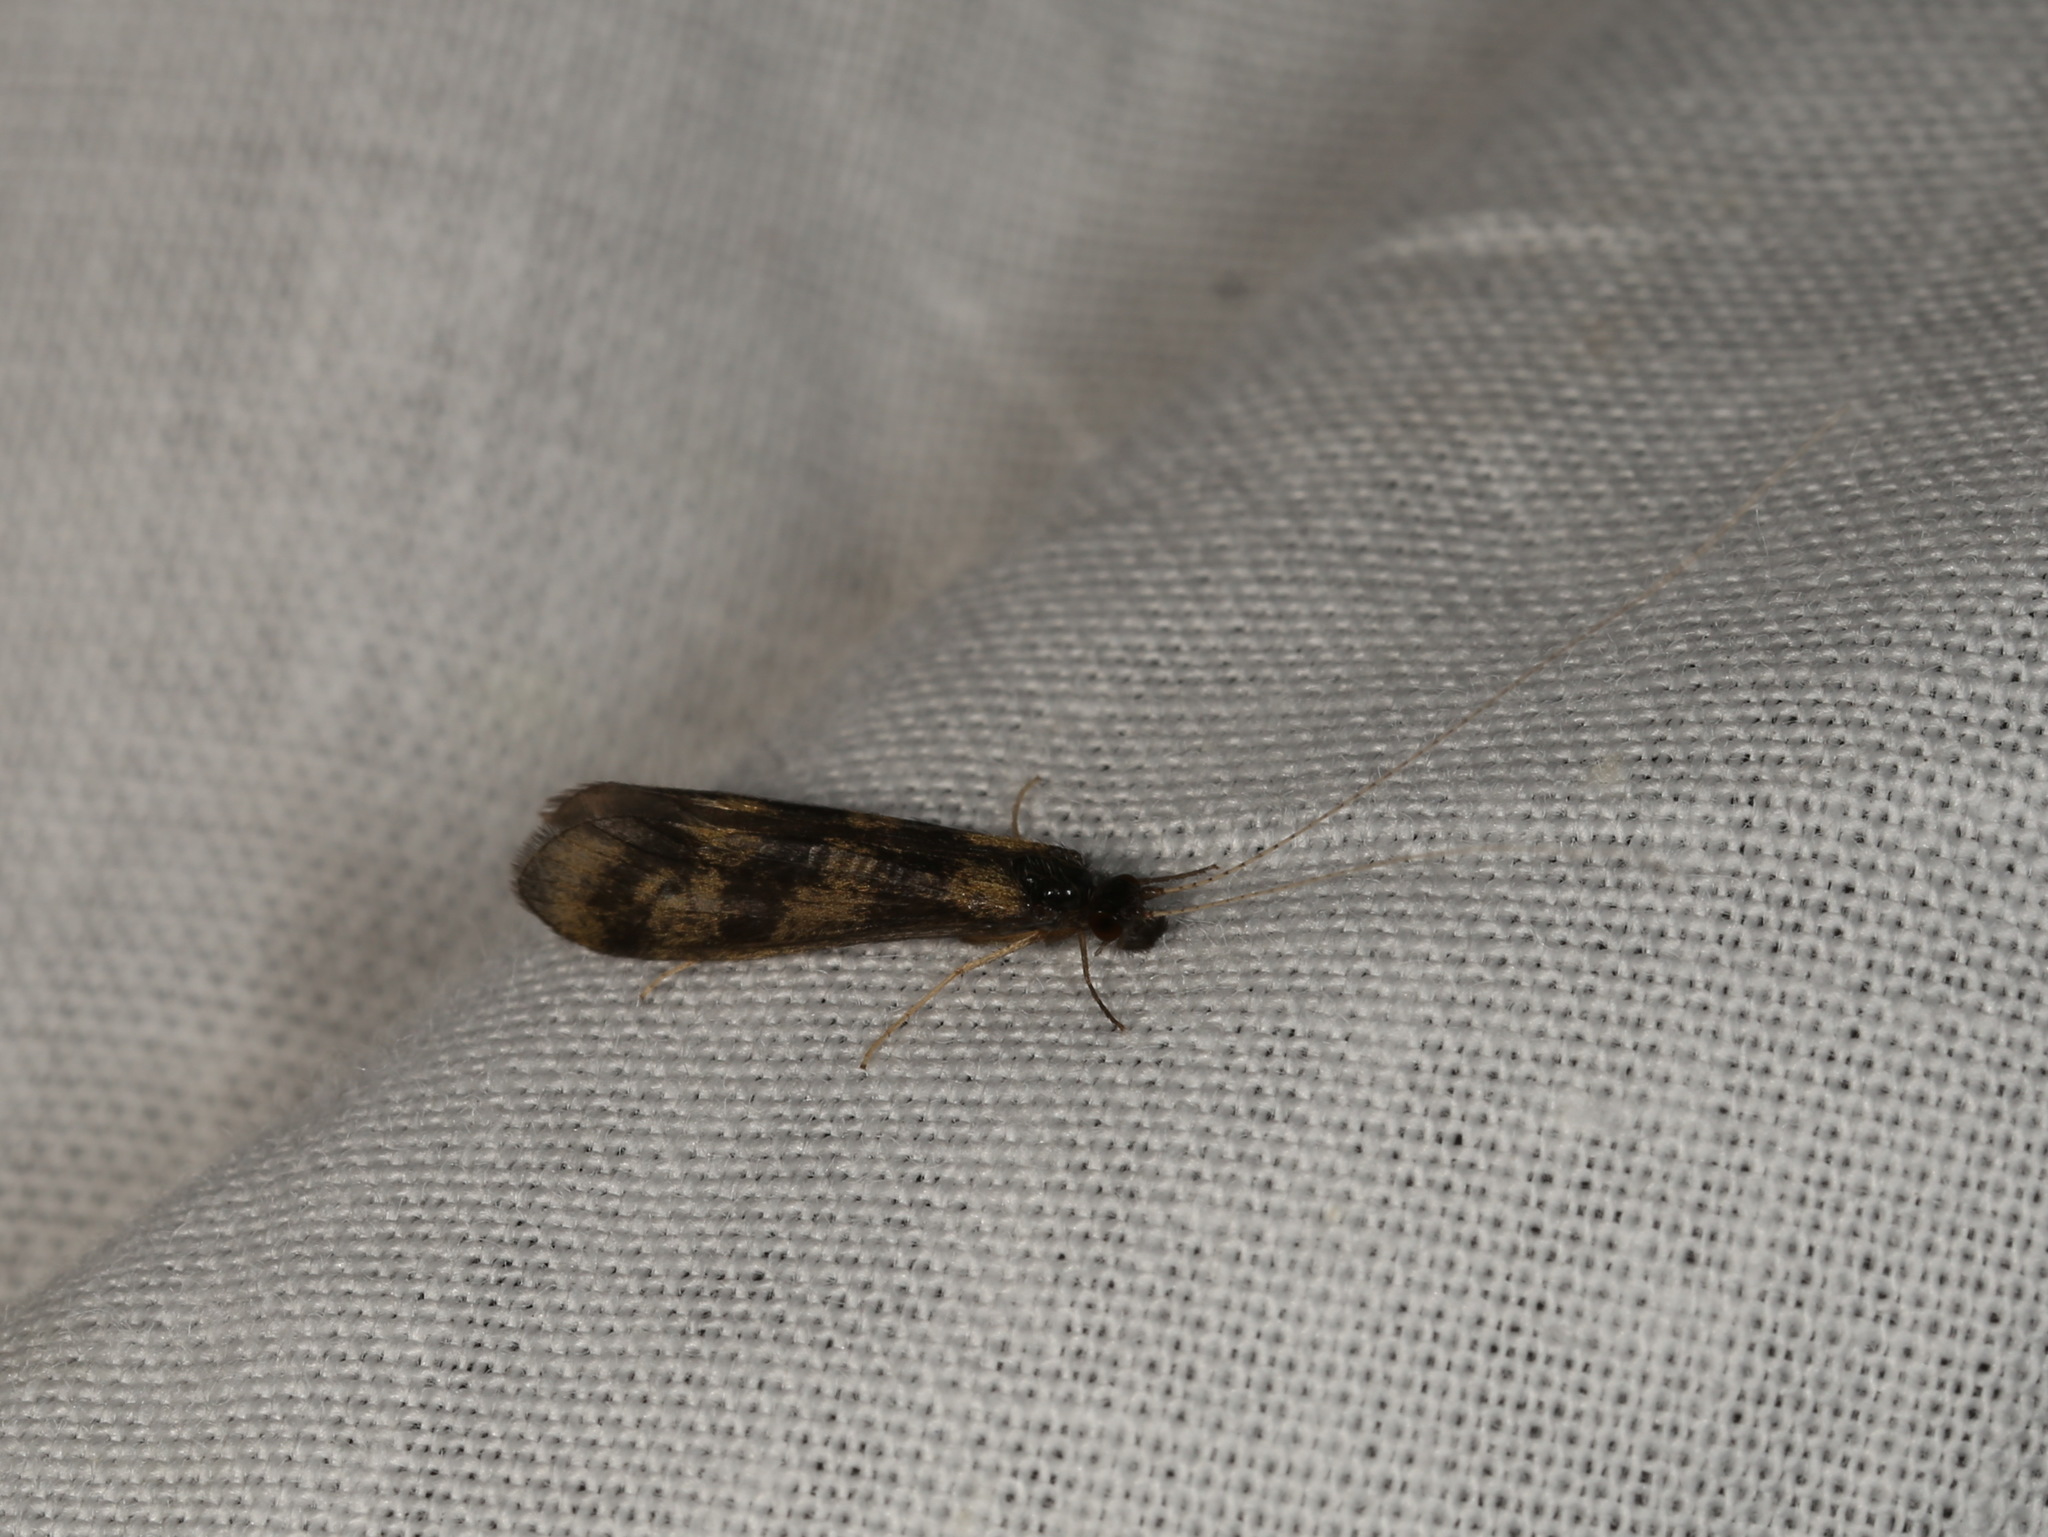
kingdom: Animalia
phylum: Arthropoda
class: Insecta
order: Trichoptera
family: Leptoceridae
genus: Mystacides
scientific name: Mystacides longicornis
